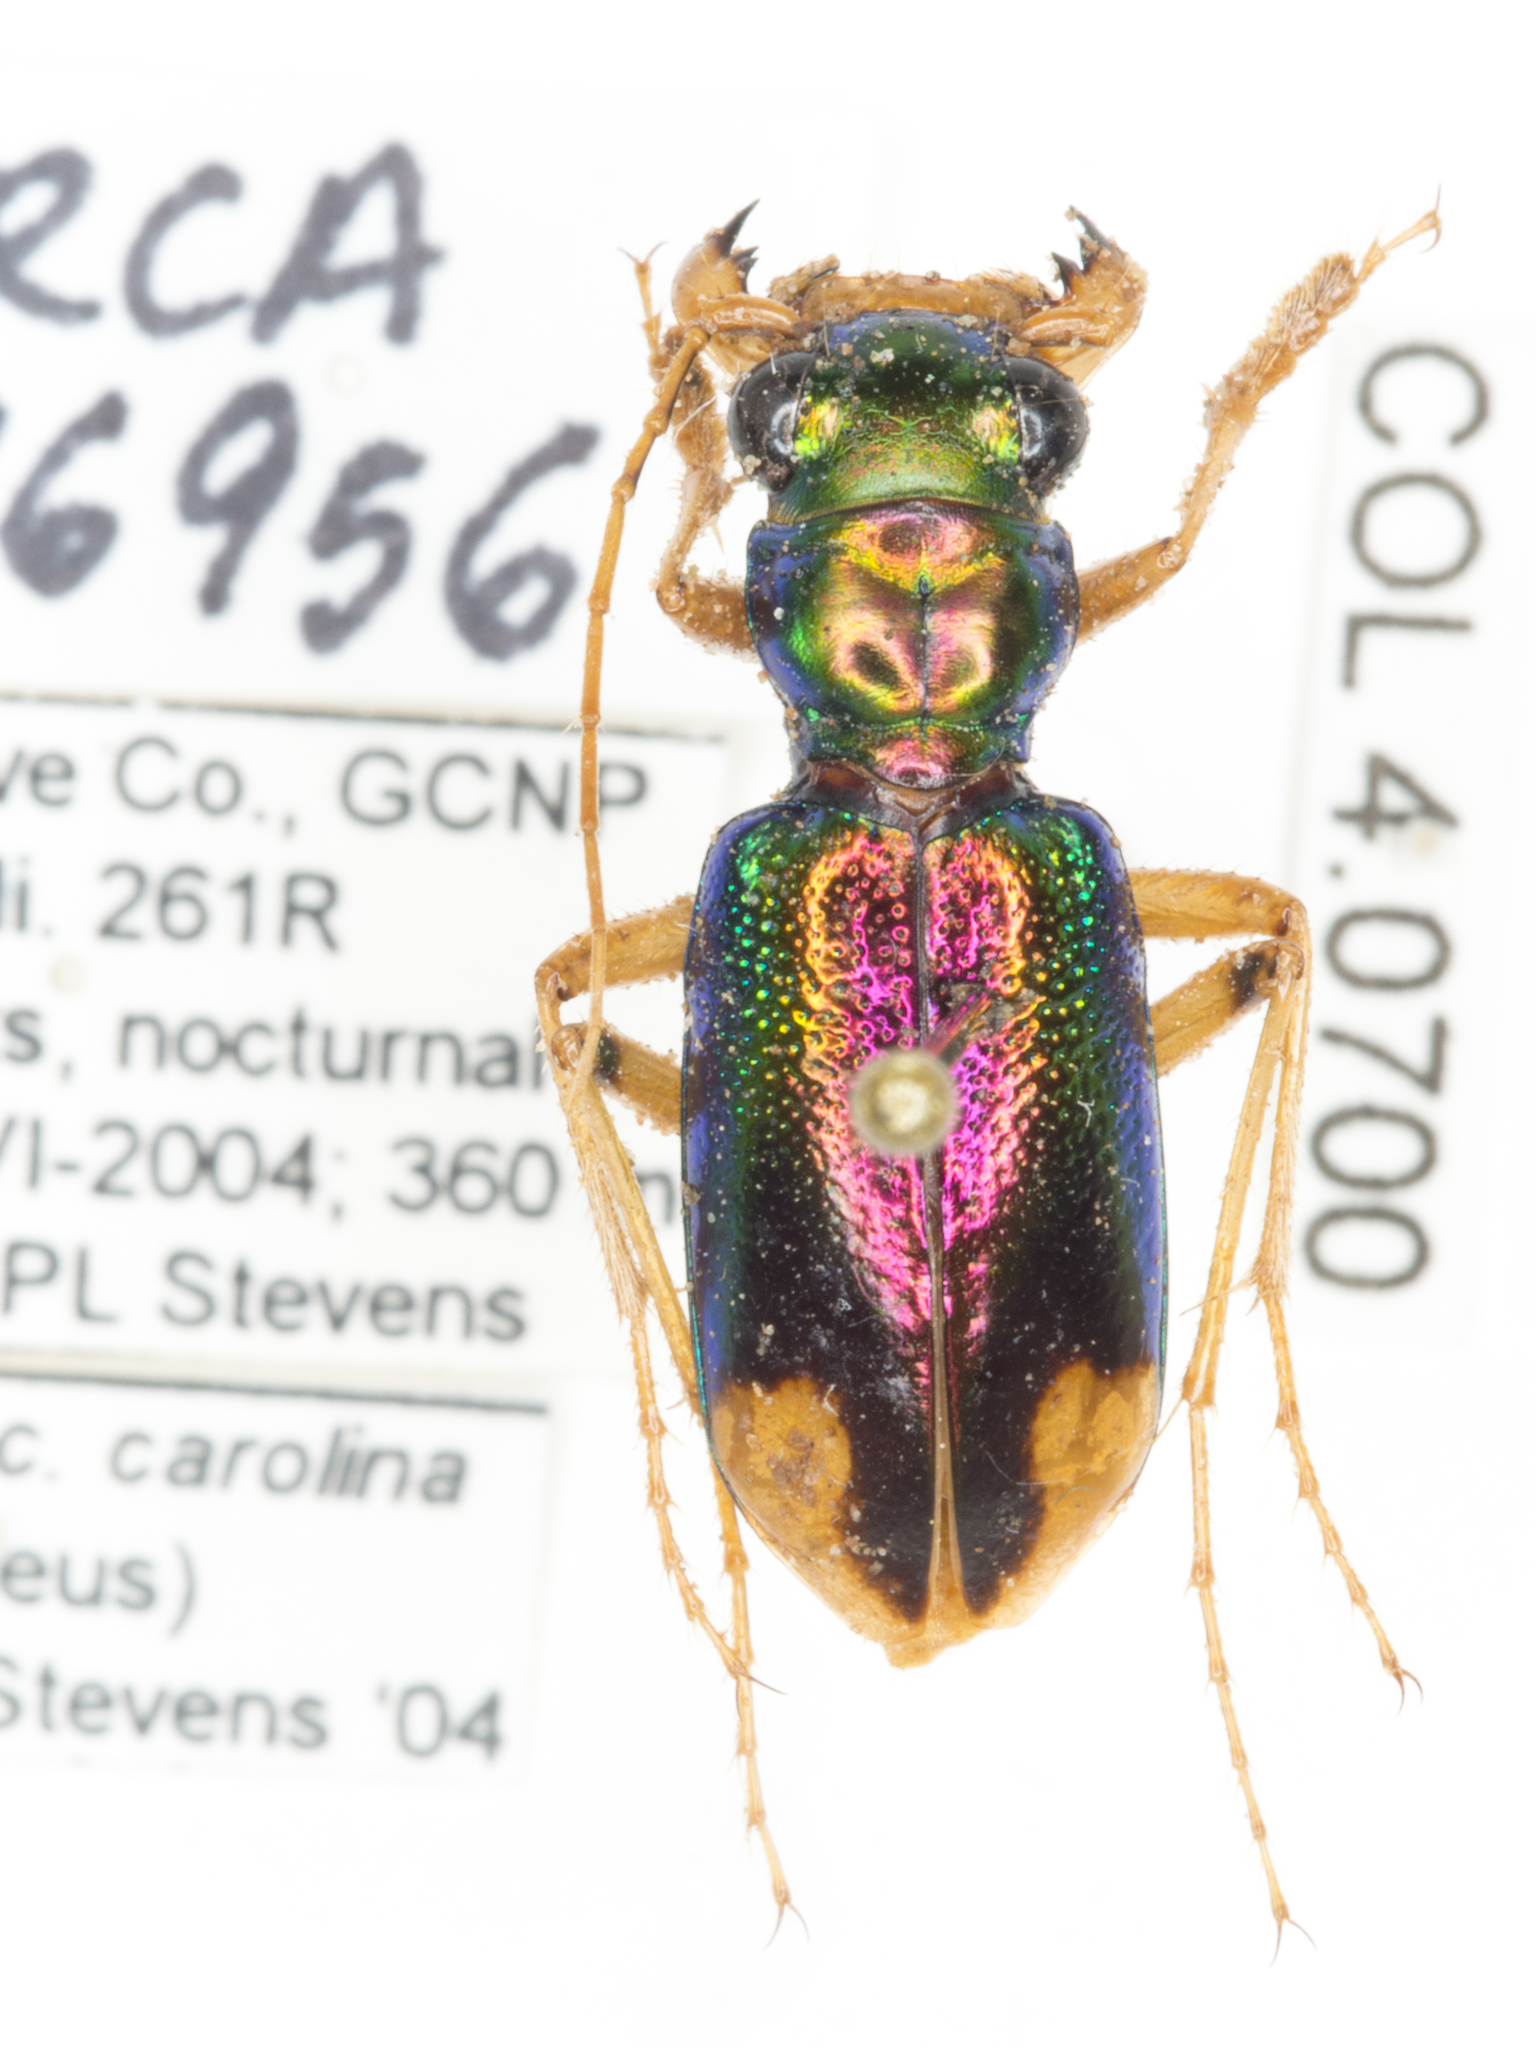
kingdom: Animalia
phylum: Arthropoda
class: Insecta
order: Coleoptera
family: Carabidae
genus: Tetracha
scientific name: Tetracha carolina
